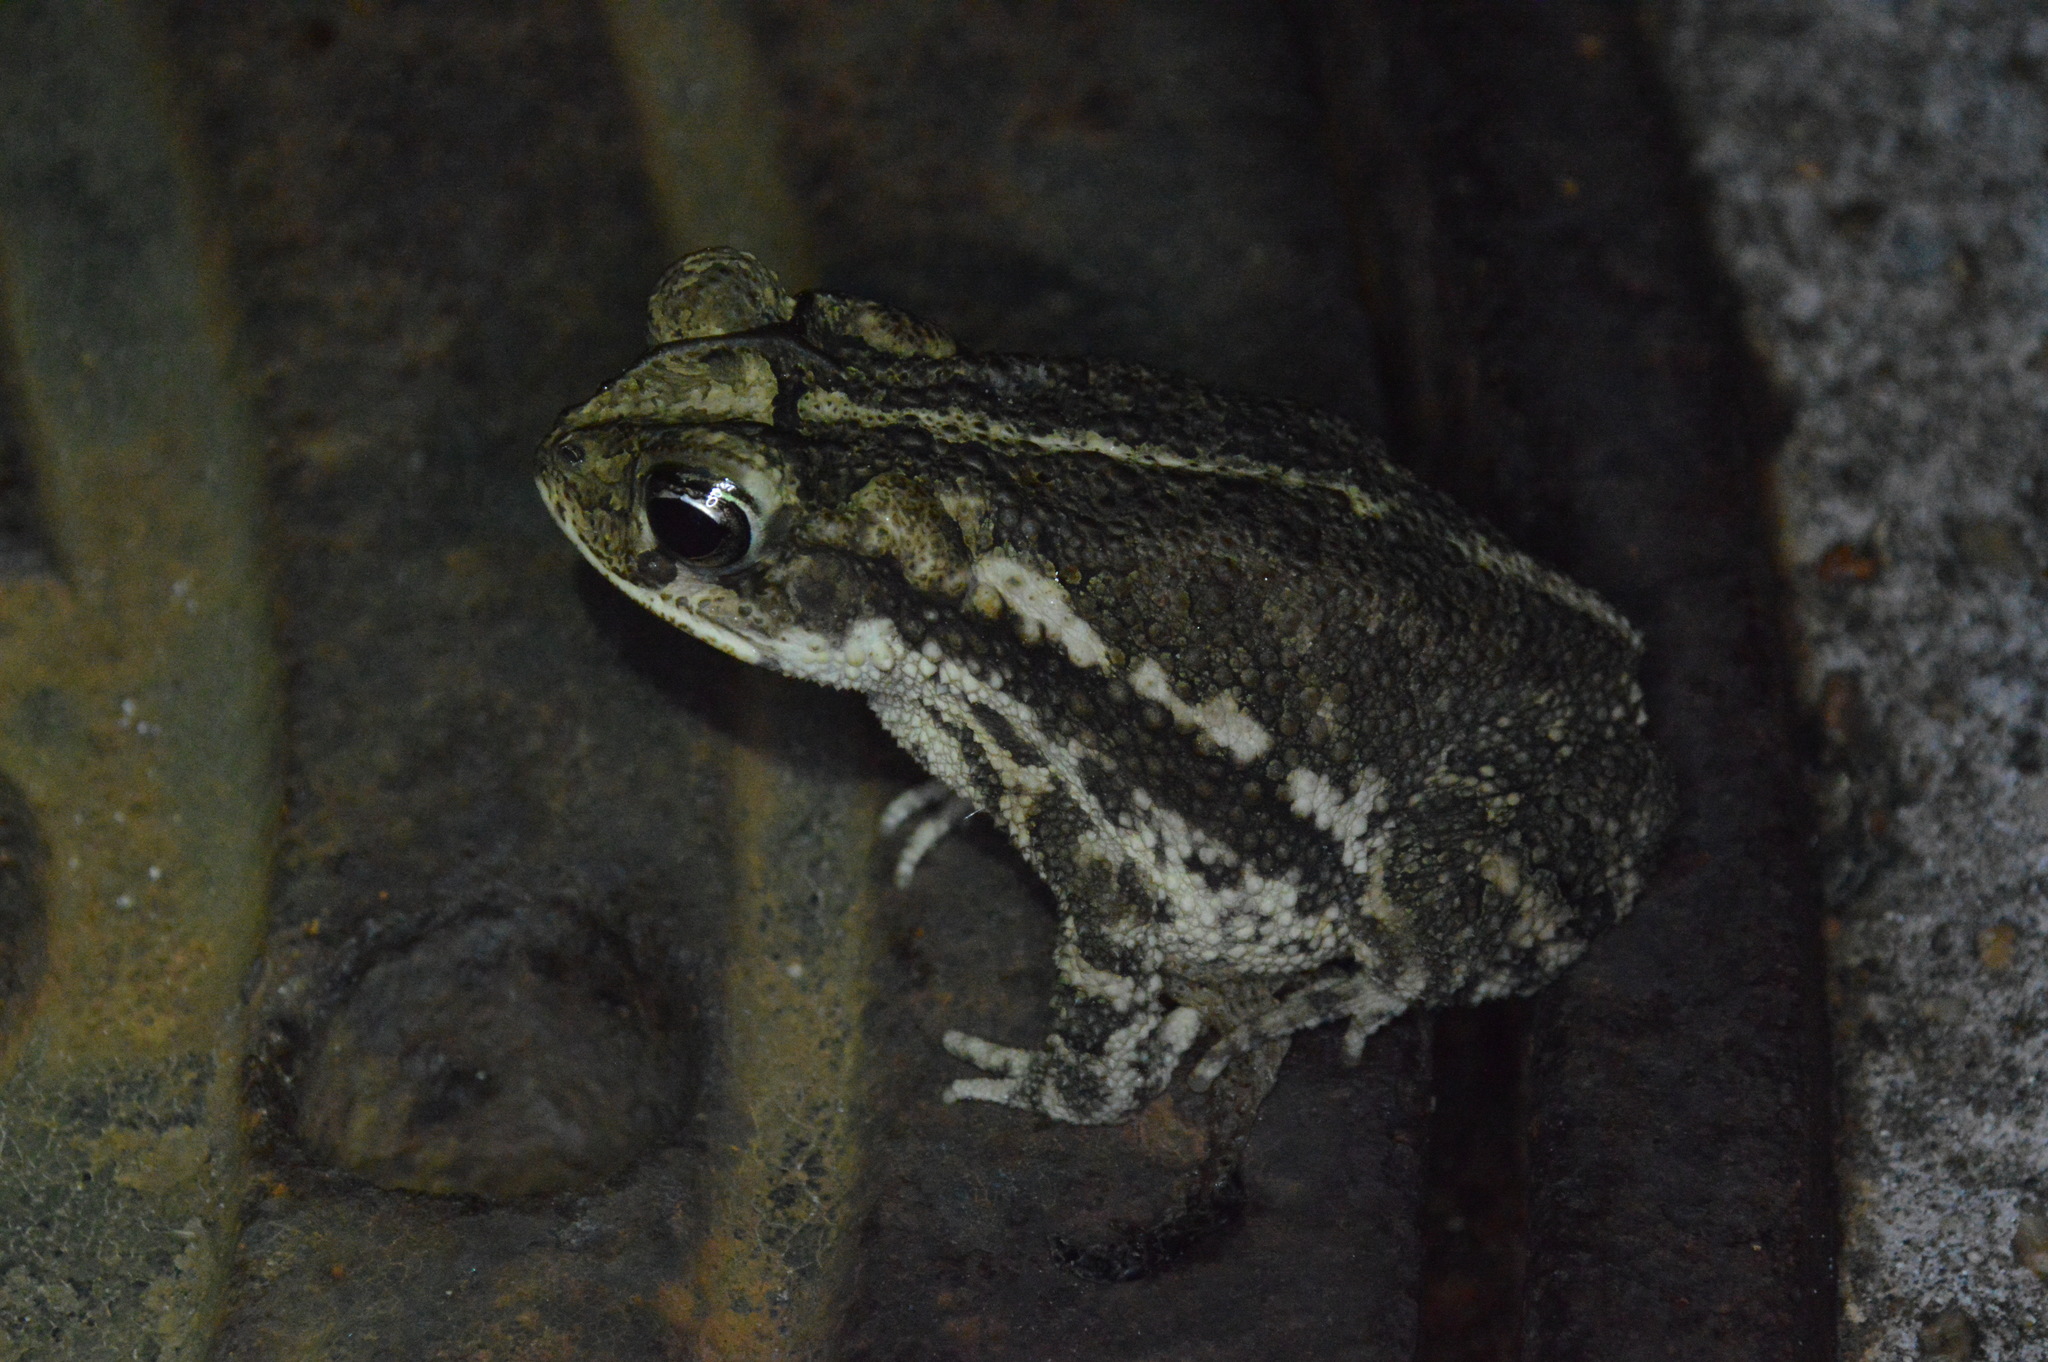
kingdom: Animalia
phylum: Chordata
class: Amphibia
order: Anura
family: Bufonidae
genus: Incilius
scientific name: Incilius nebulifer
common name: Gulf coast toad
